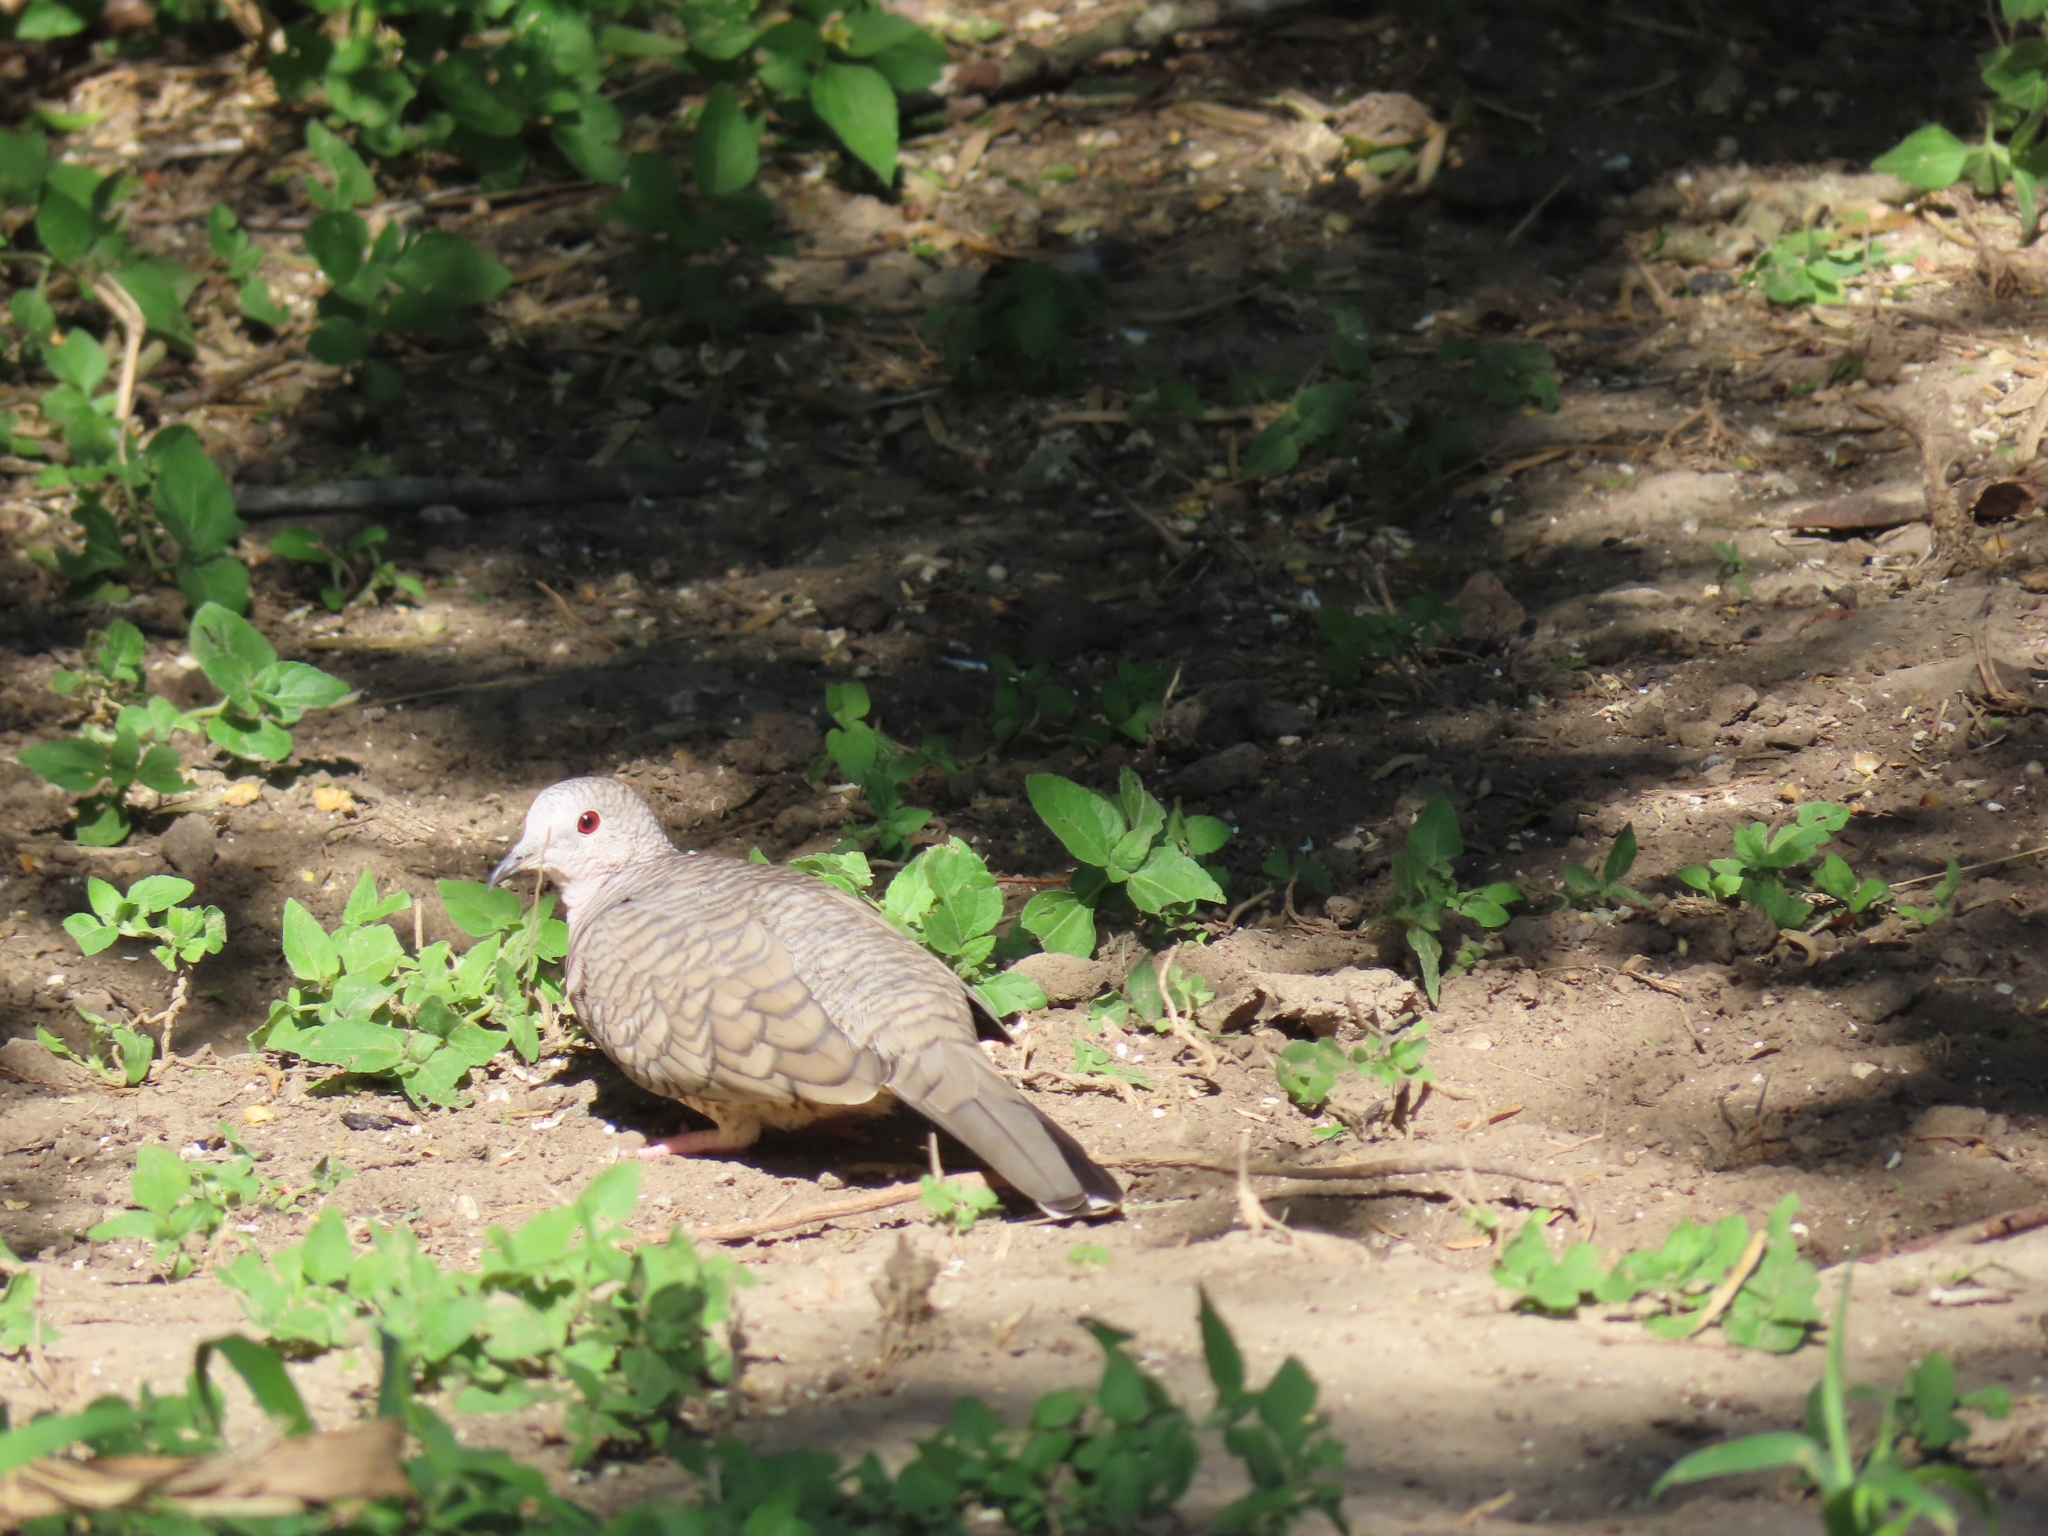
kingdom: Animalia
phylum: Chordata
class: Aves
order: Columbiformes
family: Columbidae
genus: Columbina
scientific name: Columbina inca
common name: Inca dove
